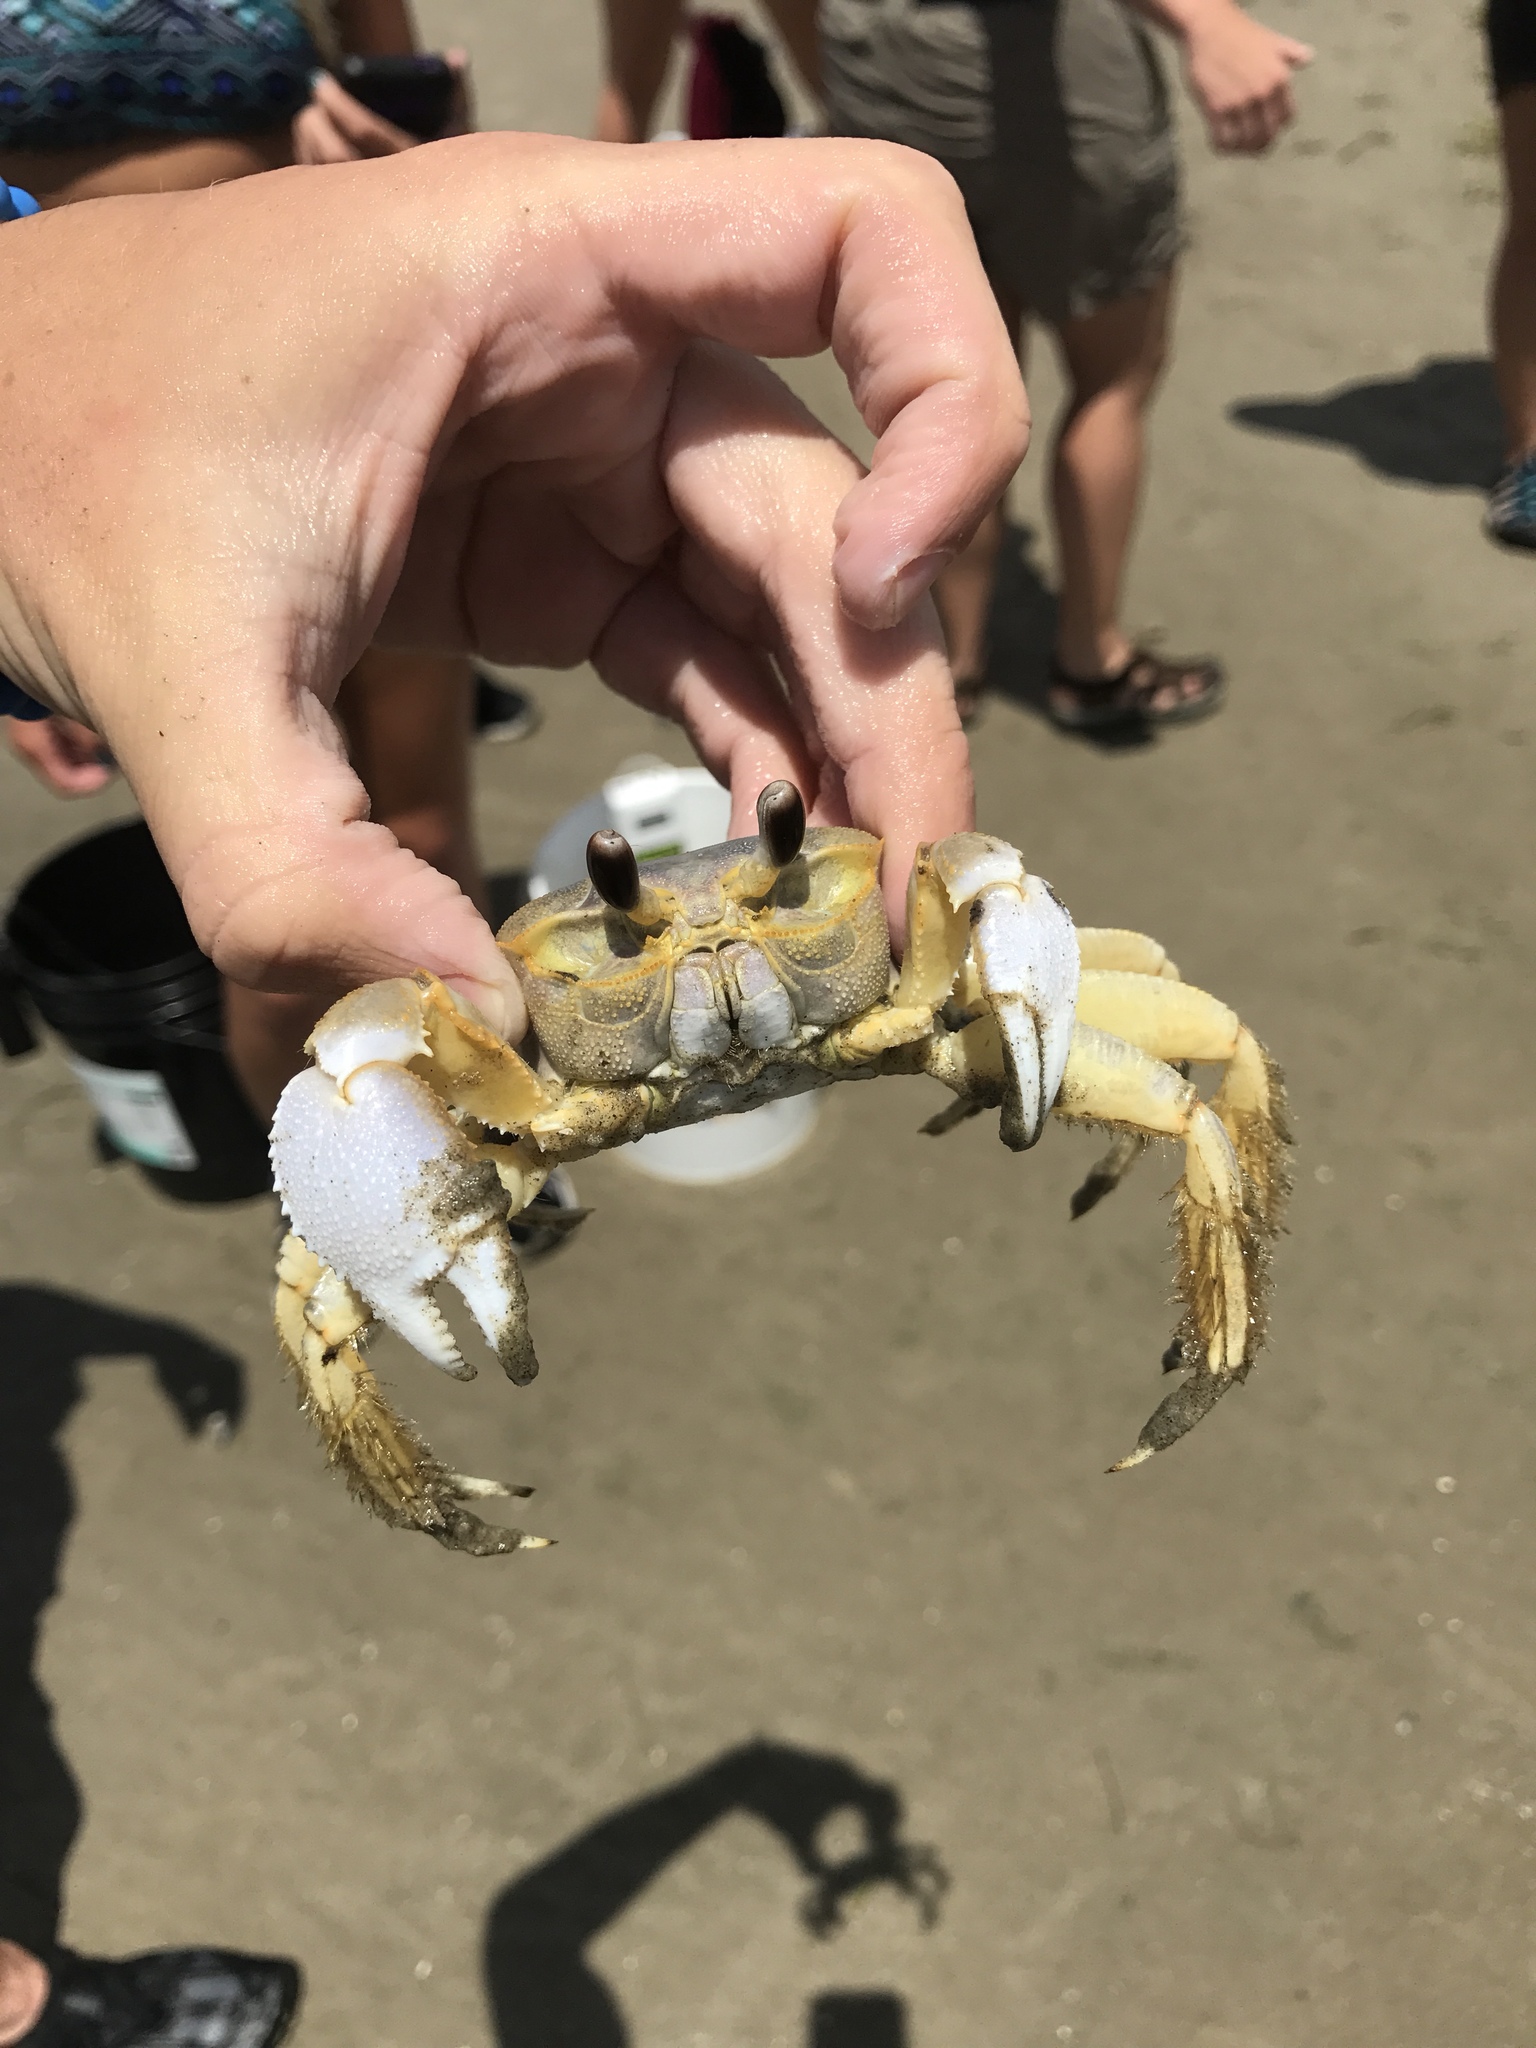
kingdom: Animalia
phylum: Arthropoda
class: Malacostraca
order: Decapoda
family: Ocypodidae
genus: Ocypode
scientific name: Ocypode quadrata
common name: Ghost crab
